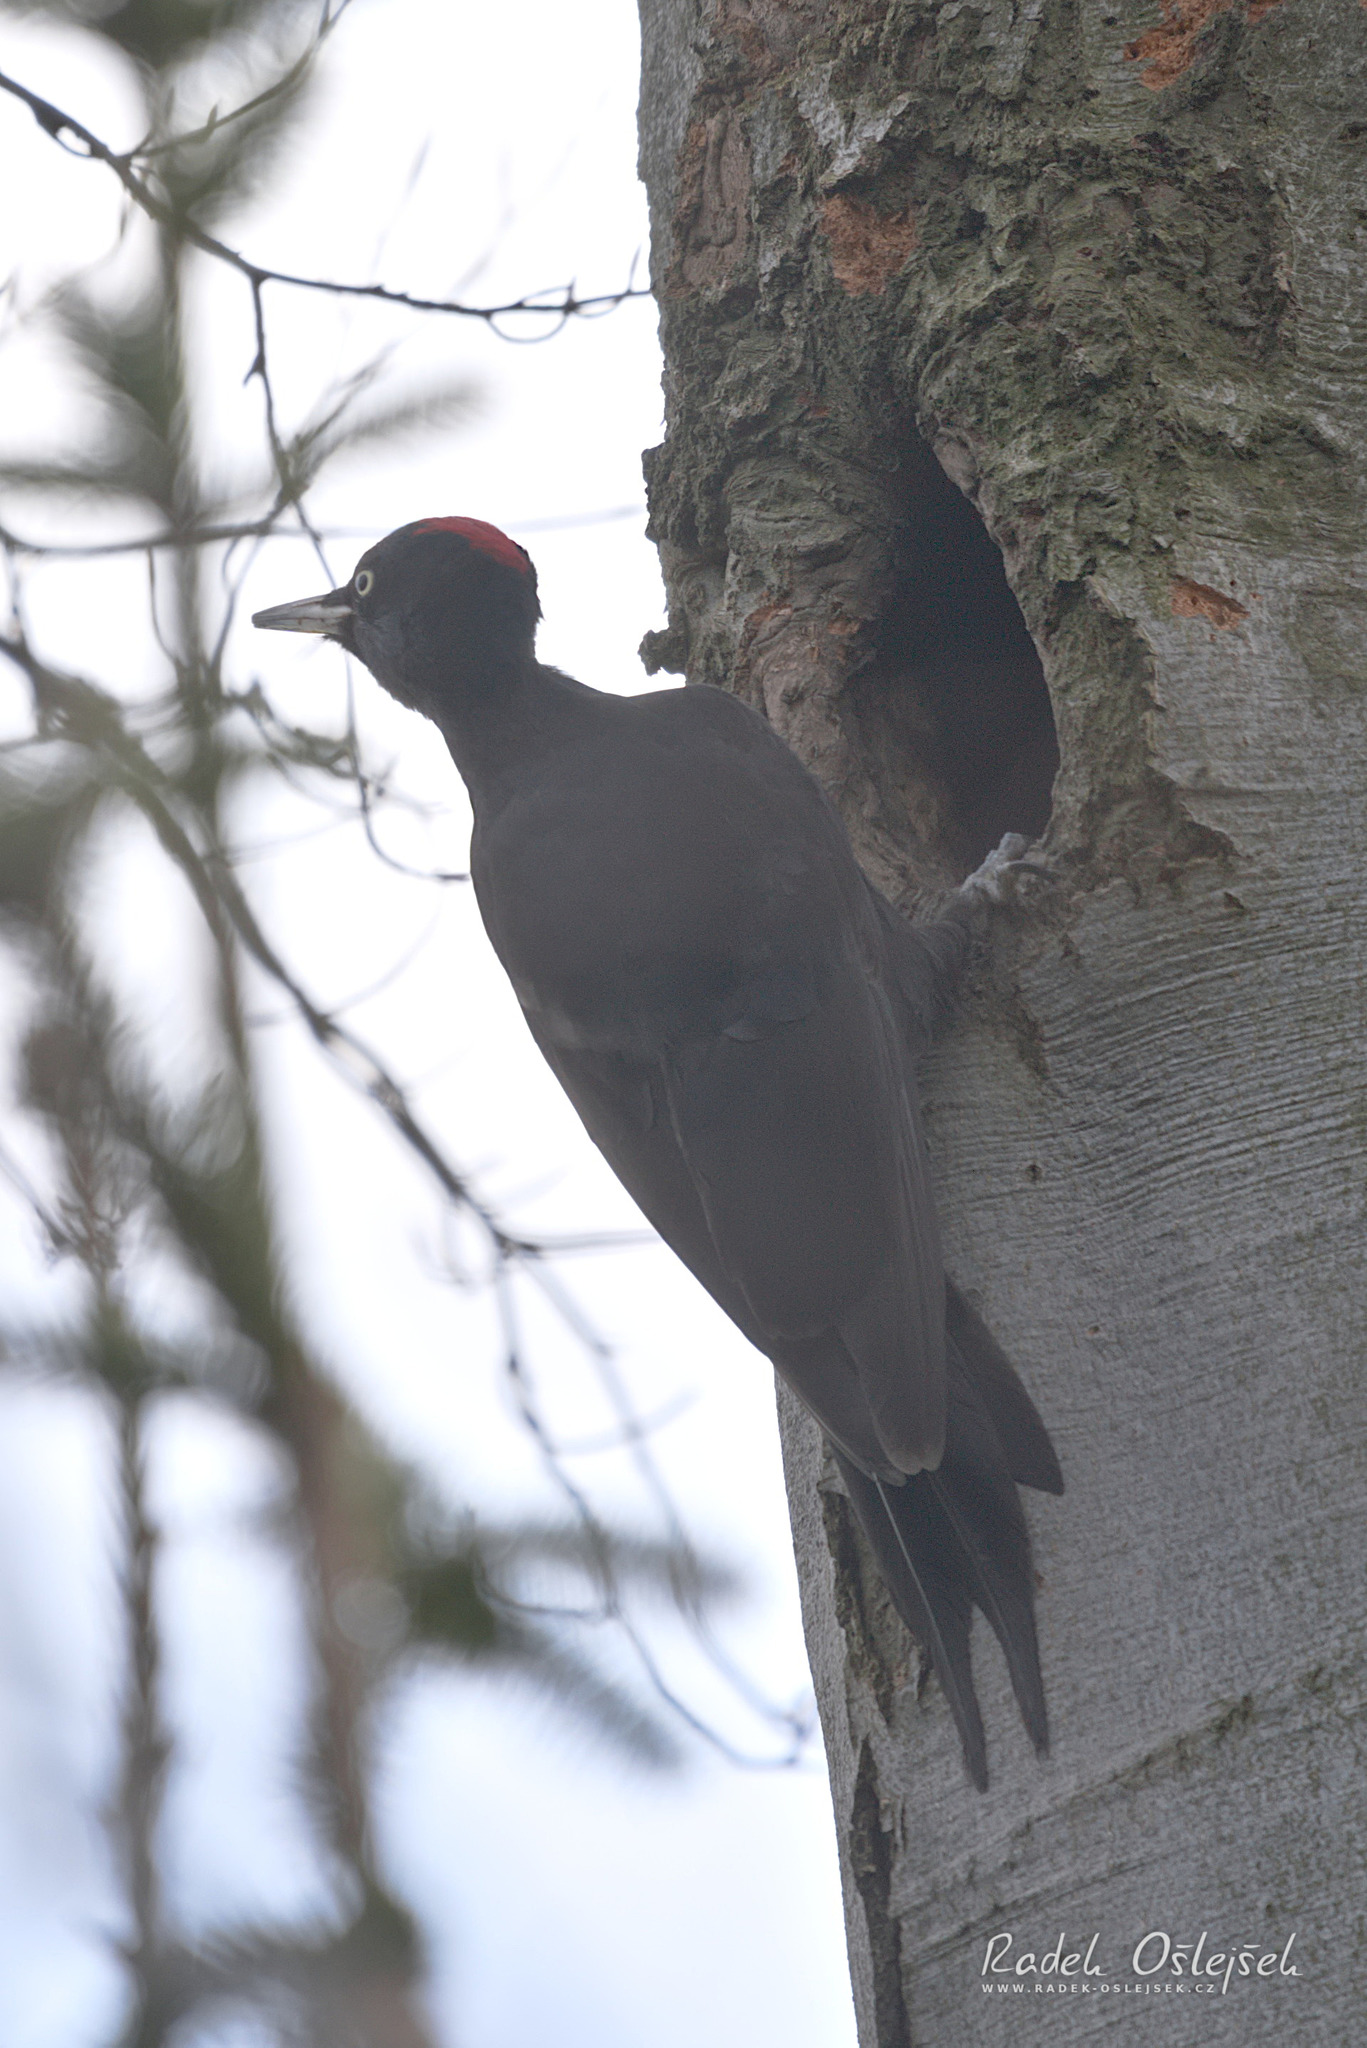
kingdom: Animalia
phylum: Chordata
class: Aves
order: Piciformes
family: Picidae
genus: Dryocopus
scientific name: Dryocopus martius
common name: Black woodpecker
